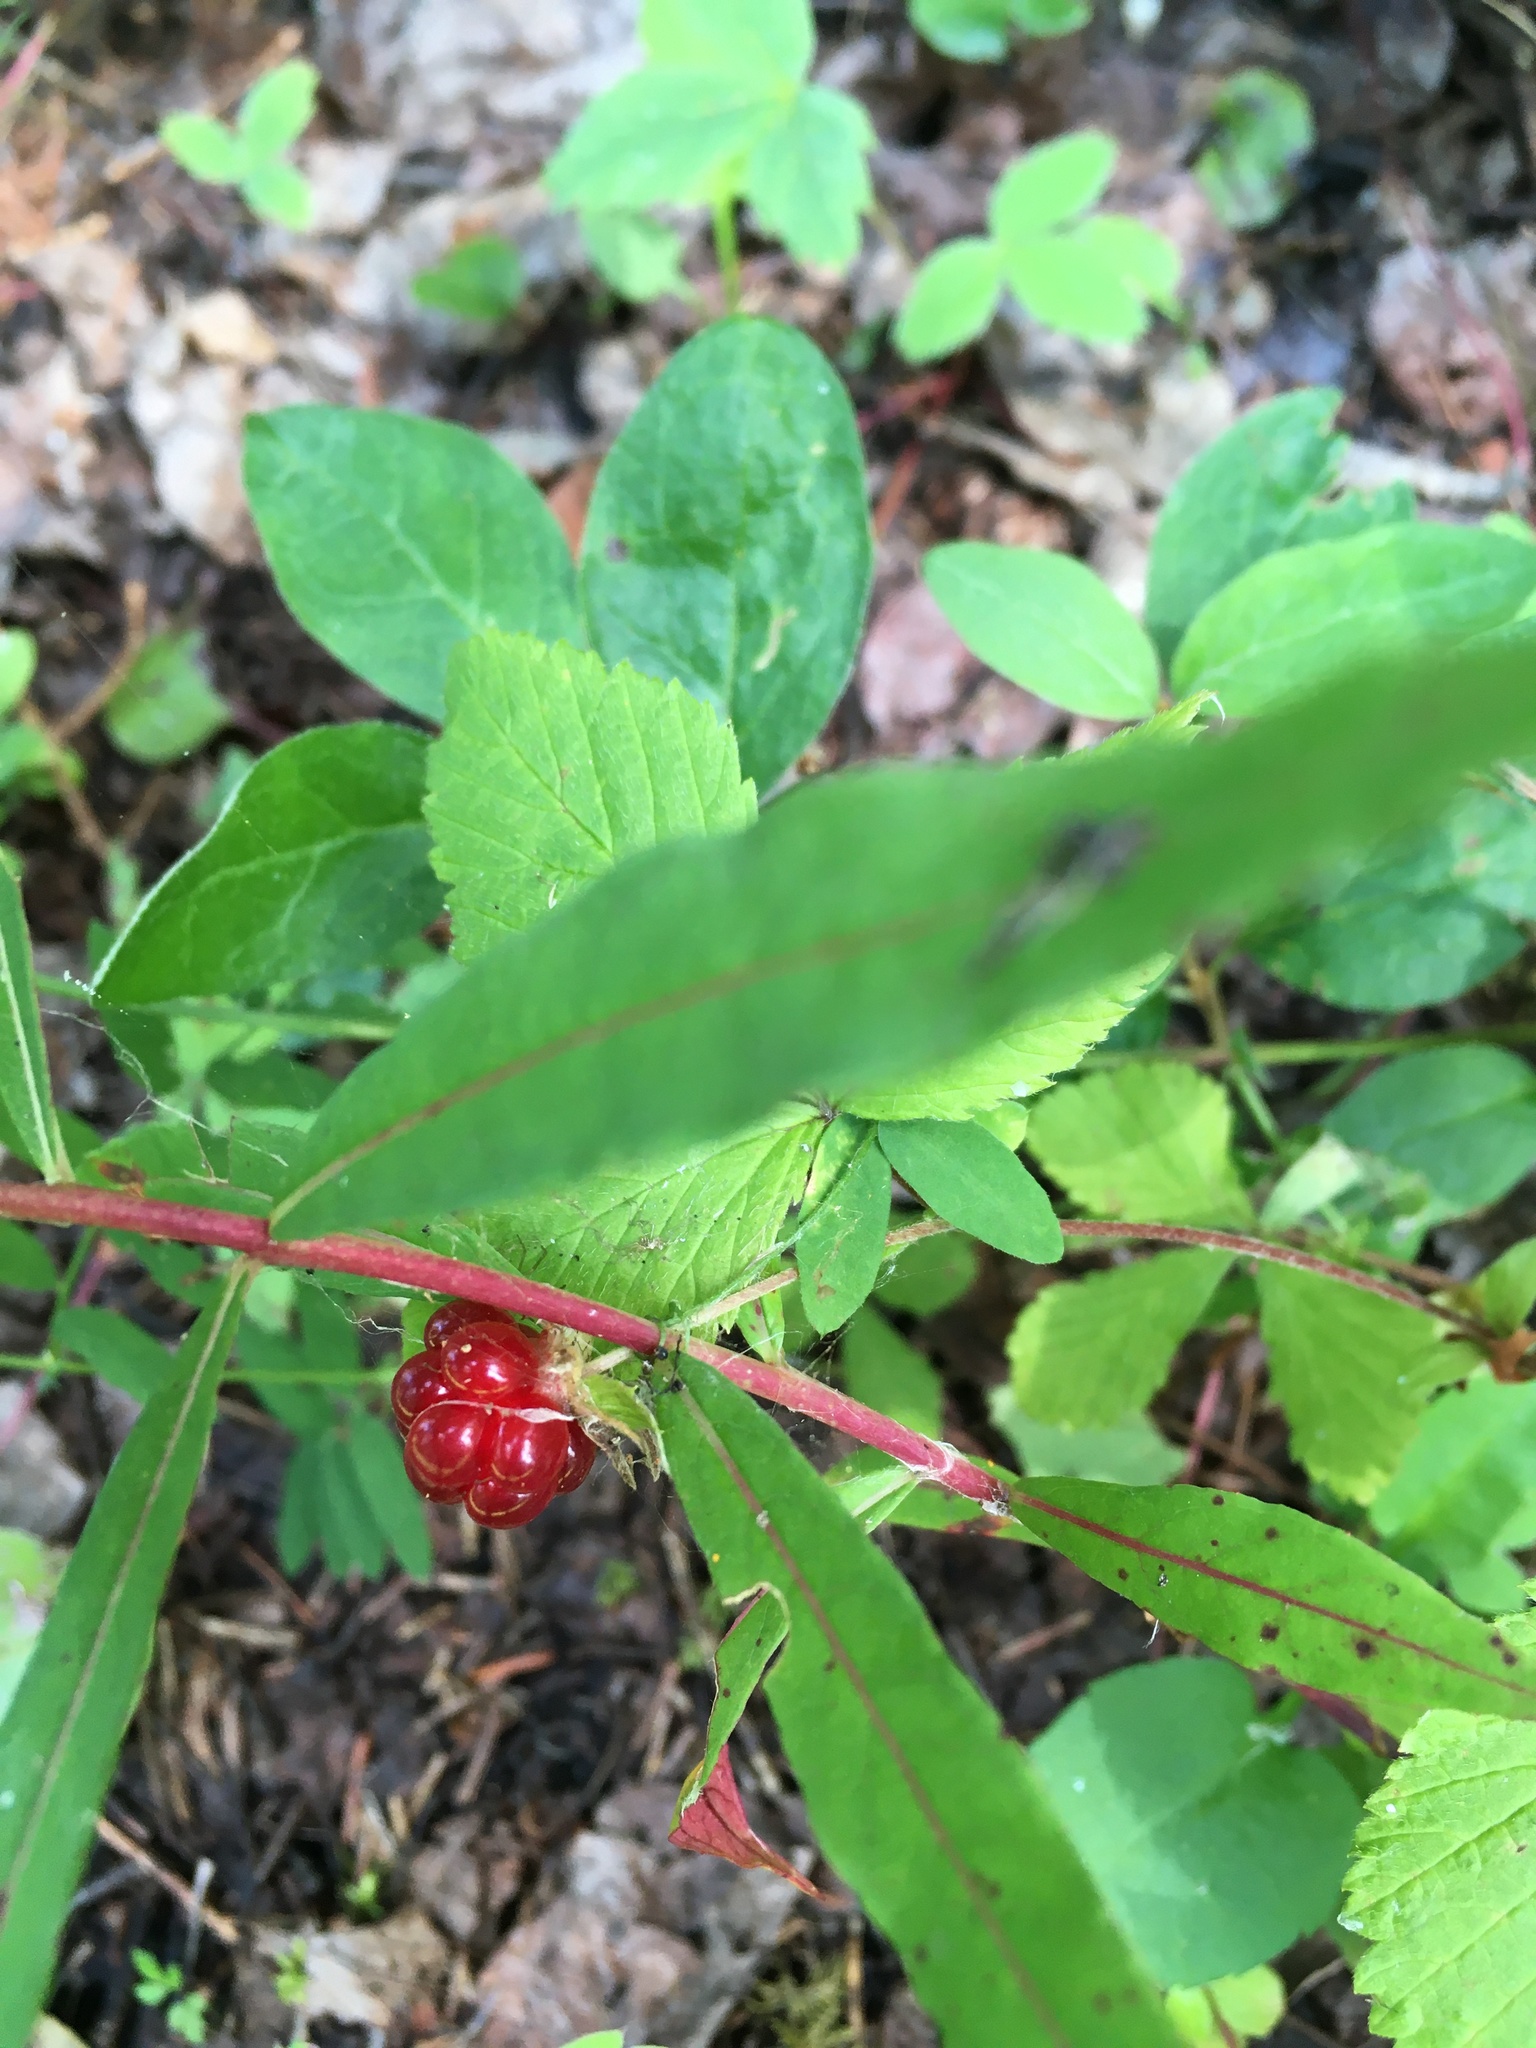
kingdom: Plantae
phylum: Tracheophyta
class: Magnoliopsida
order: Rosales
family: Rosaceae
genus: Rubus
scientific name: Rubus pubescens
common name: Dwarf raspberry
